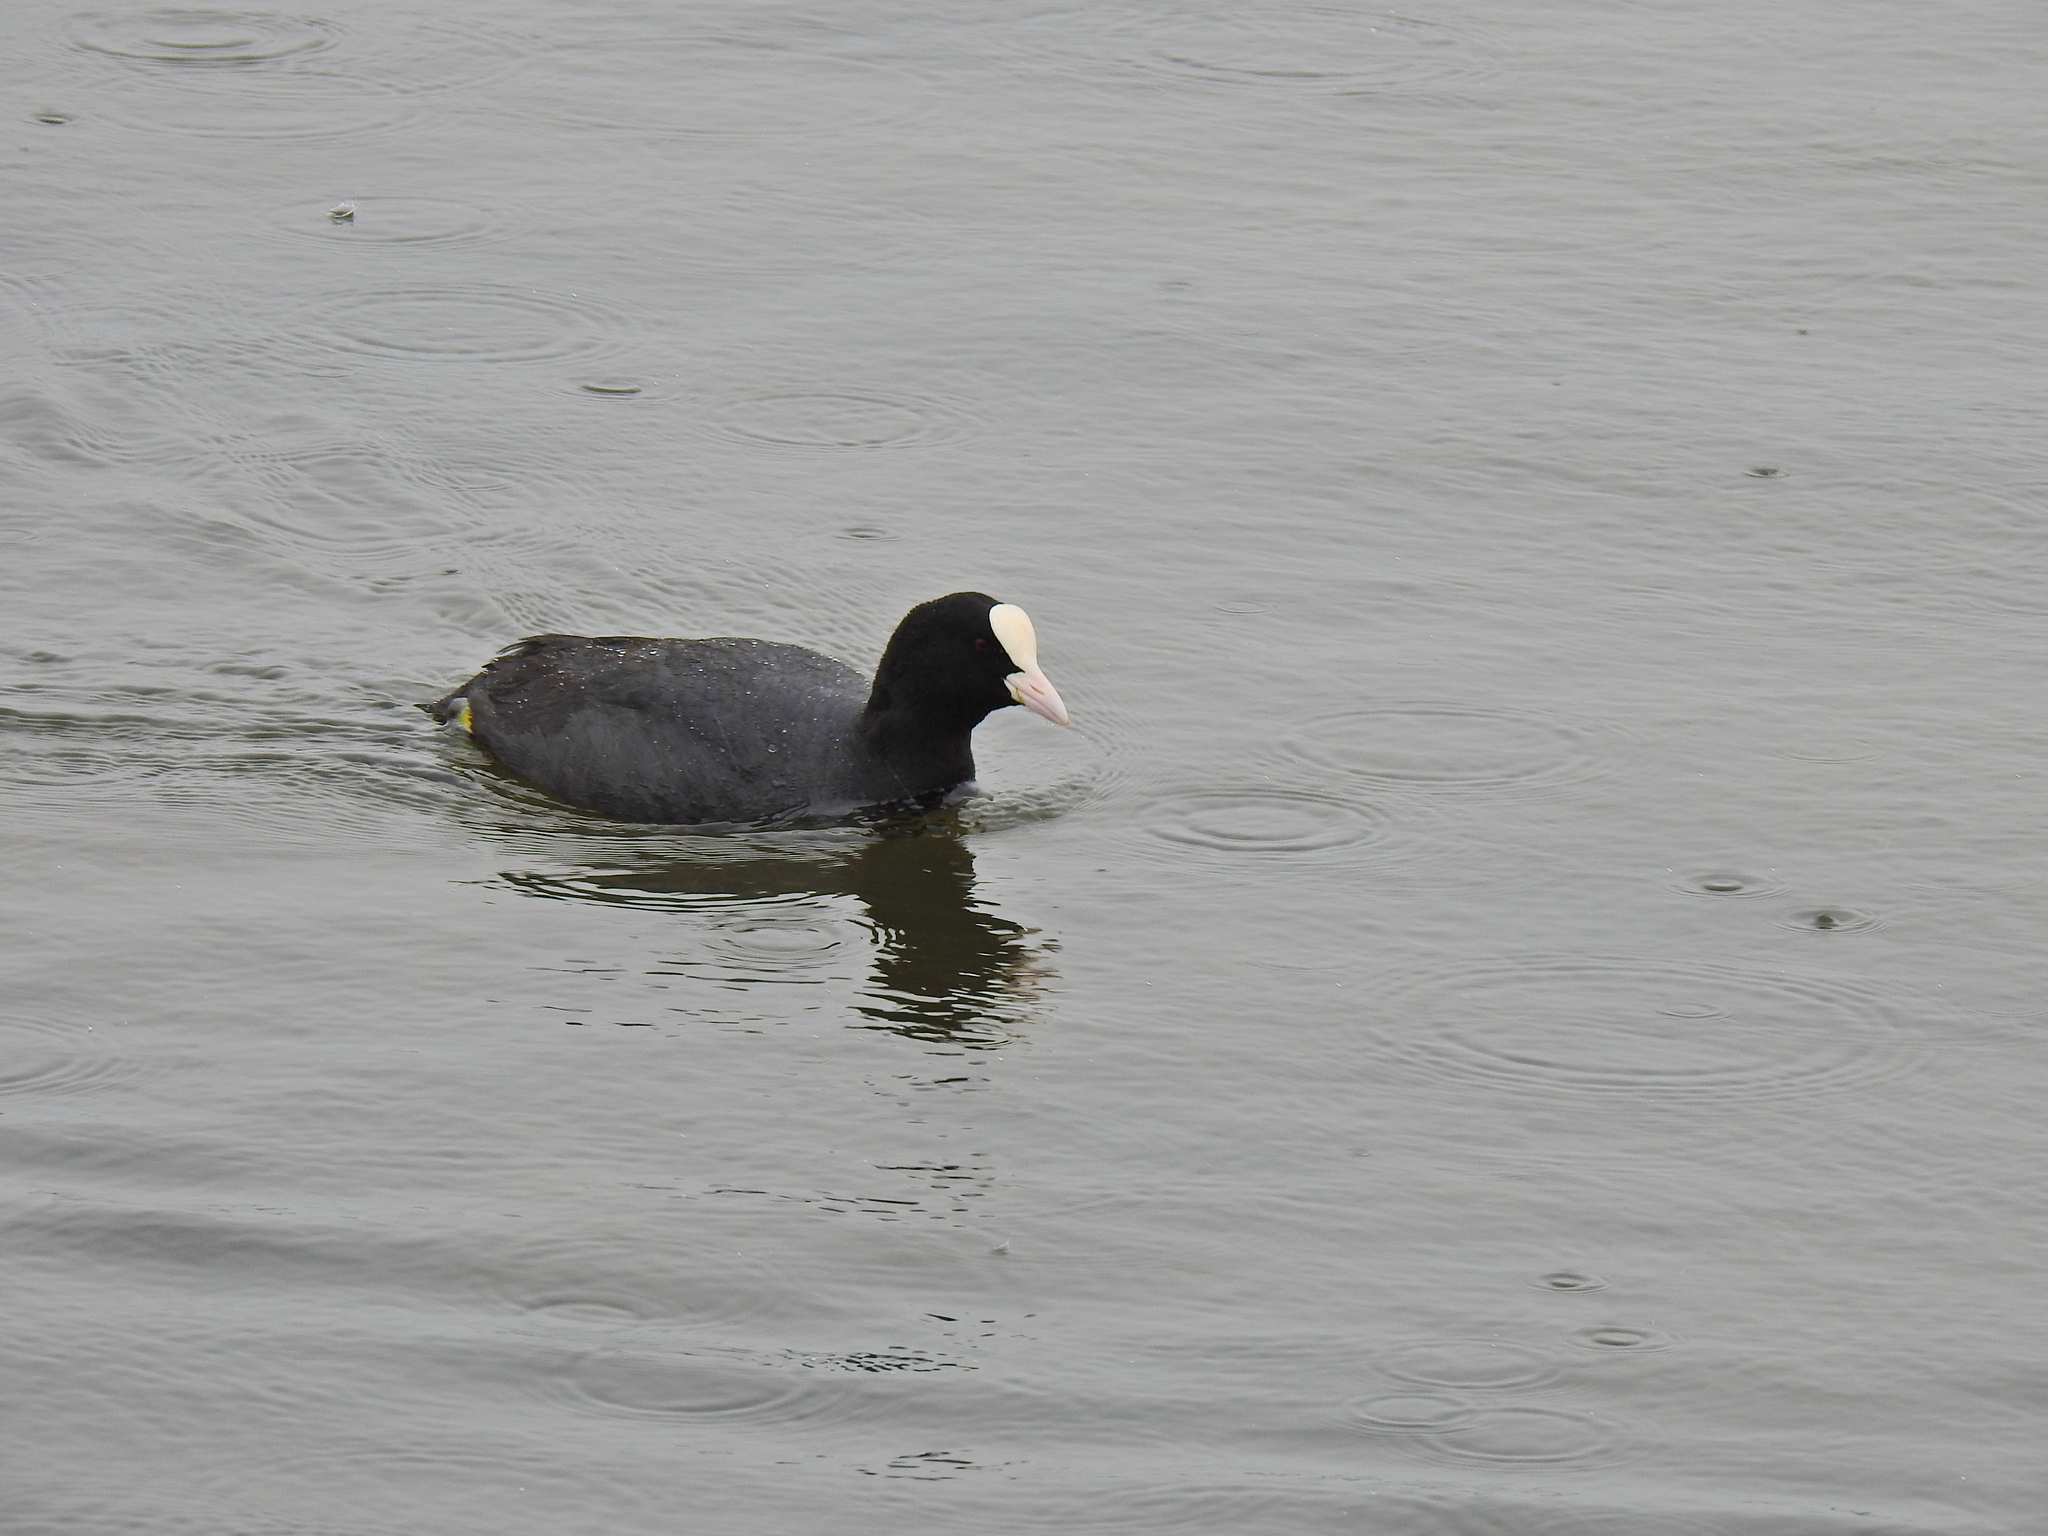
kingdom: Animalia
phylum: Chordata
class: Aves
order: Gruiformes
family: Rallidae
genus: Fulica
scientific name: Fulica atra
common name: Eurasian coot
